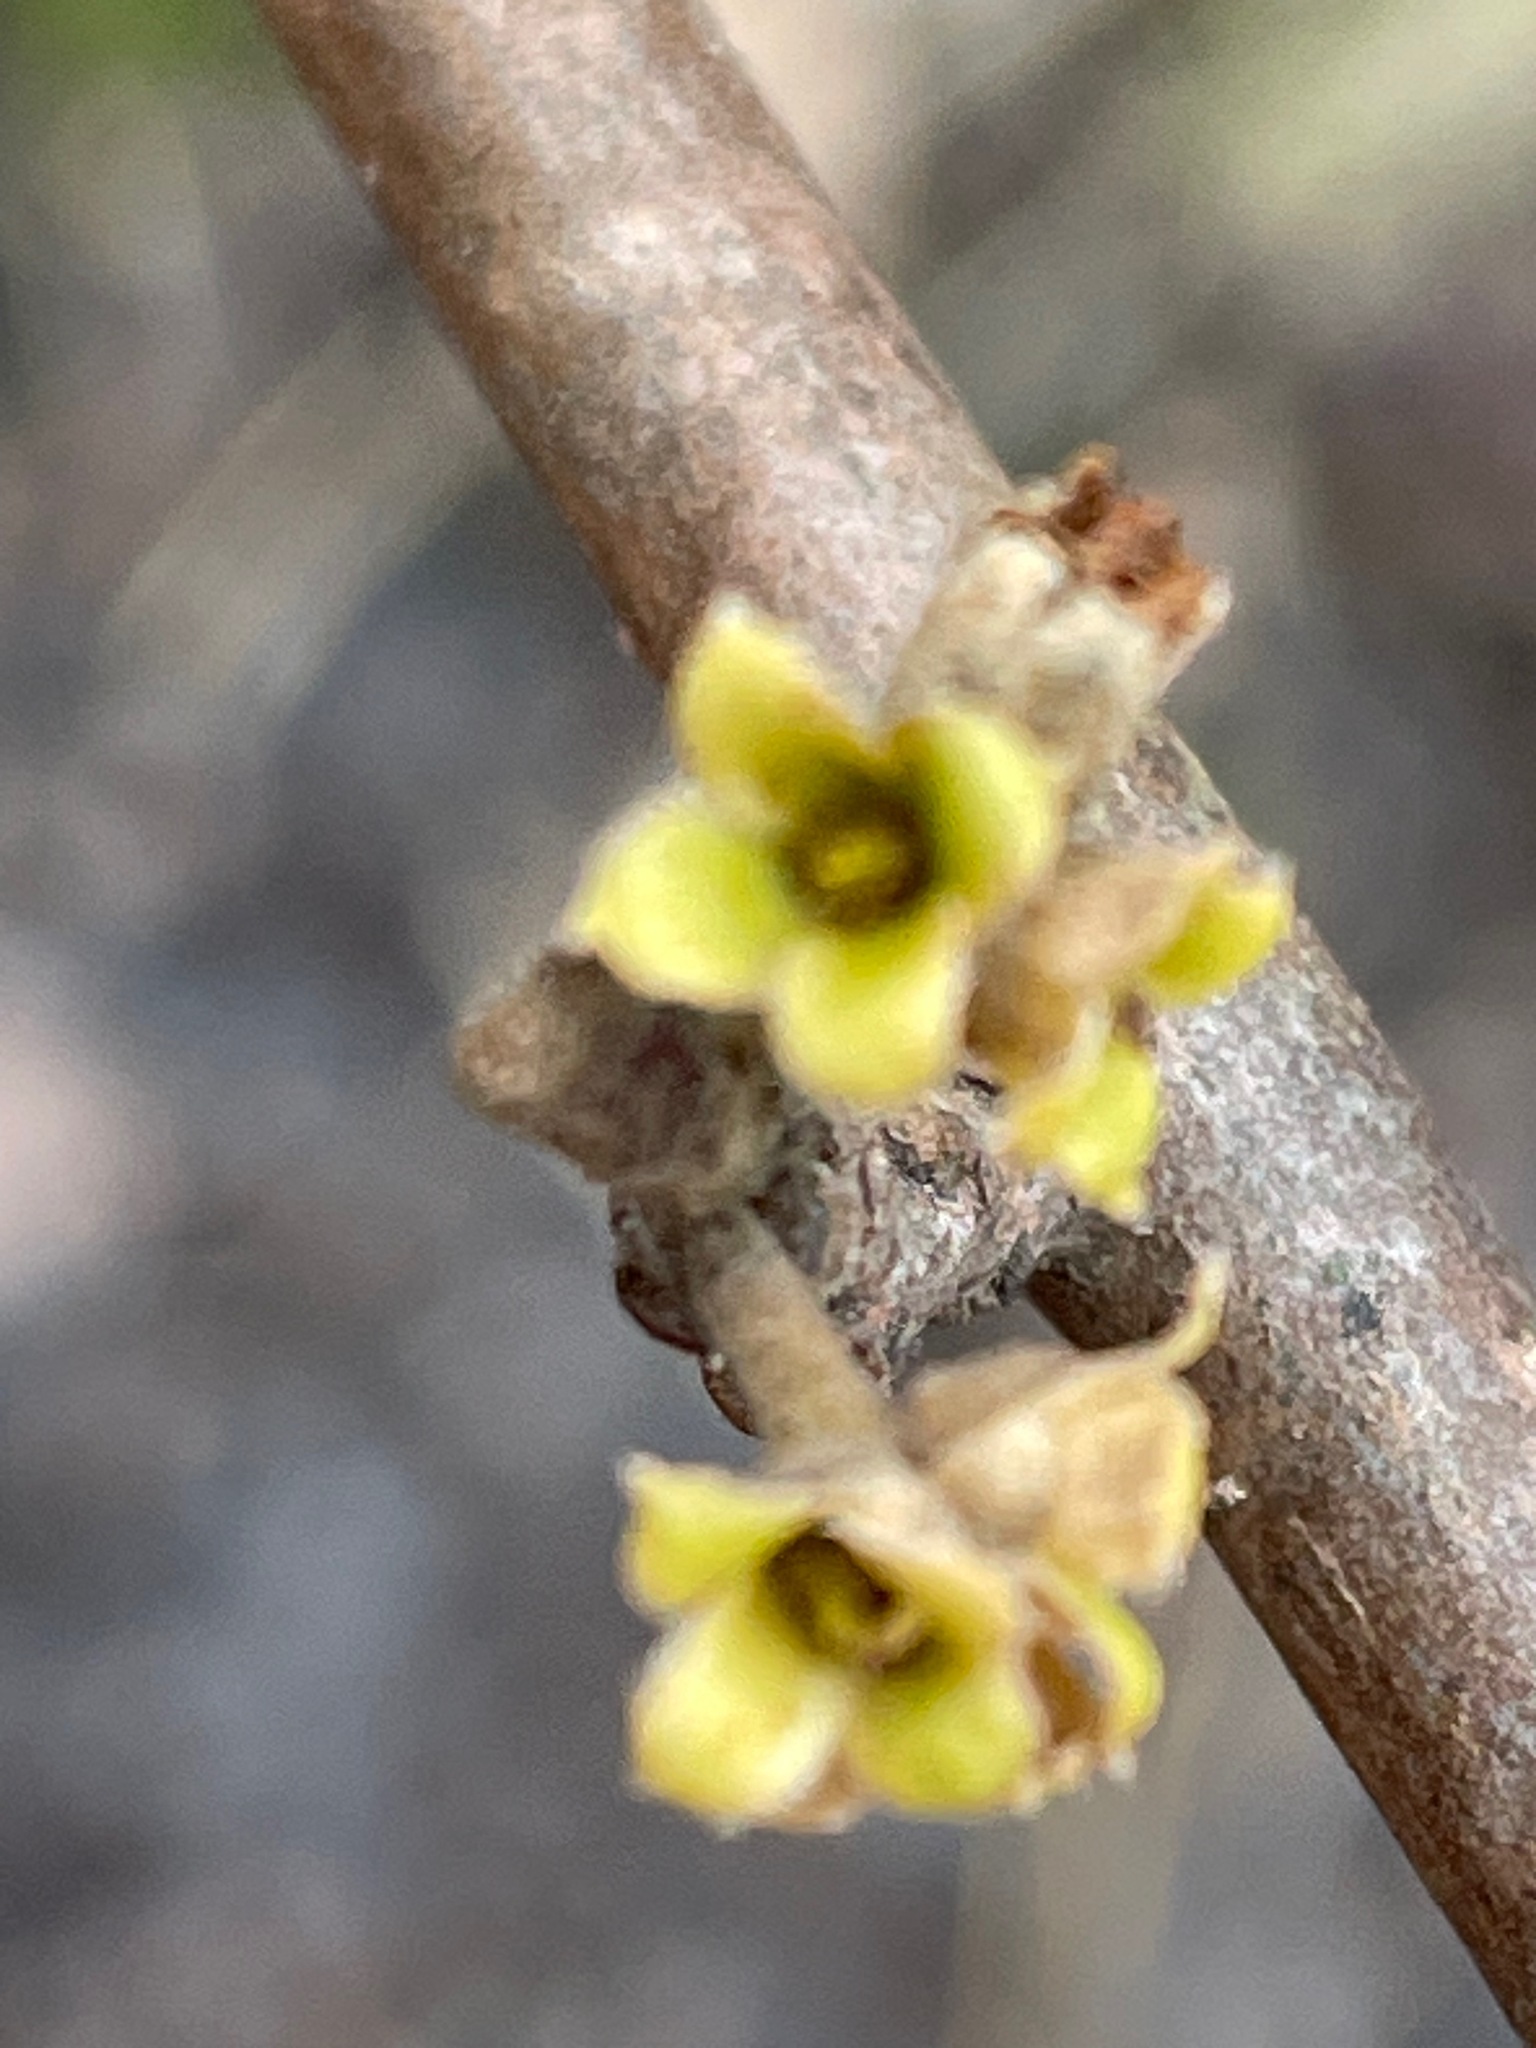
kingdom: Plantae
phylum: Tracheophyta
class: Magnoliopsida
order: Saxifragales
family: Hamamelidaceae
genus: Hamamelis
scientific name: Hamamelis virginiana
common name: Witch-hazel
